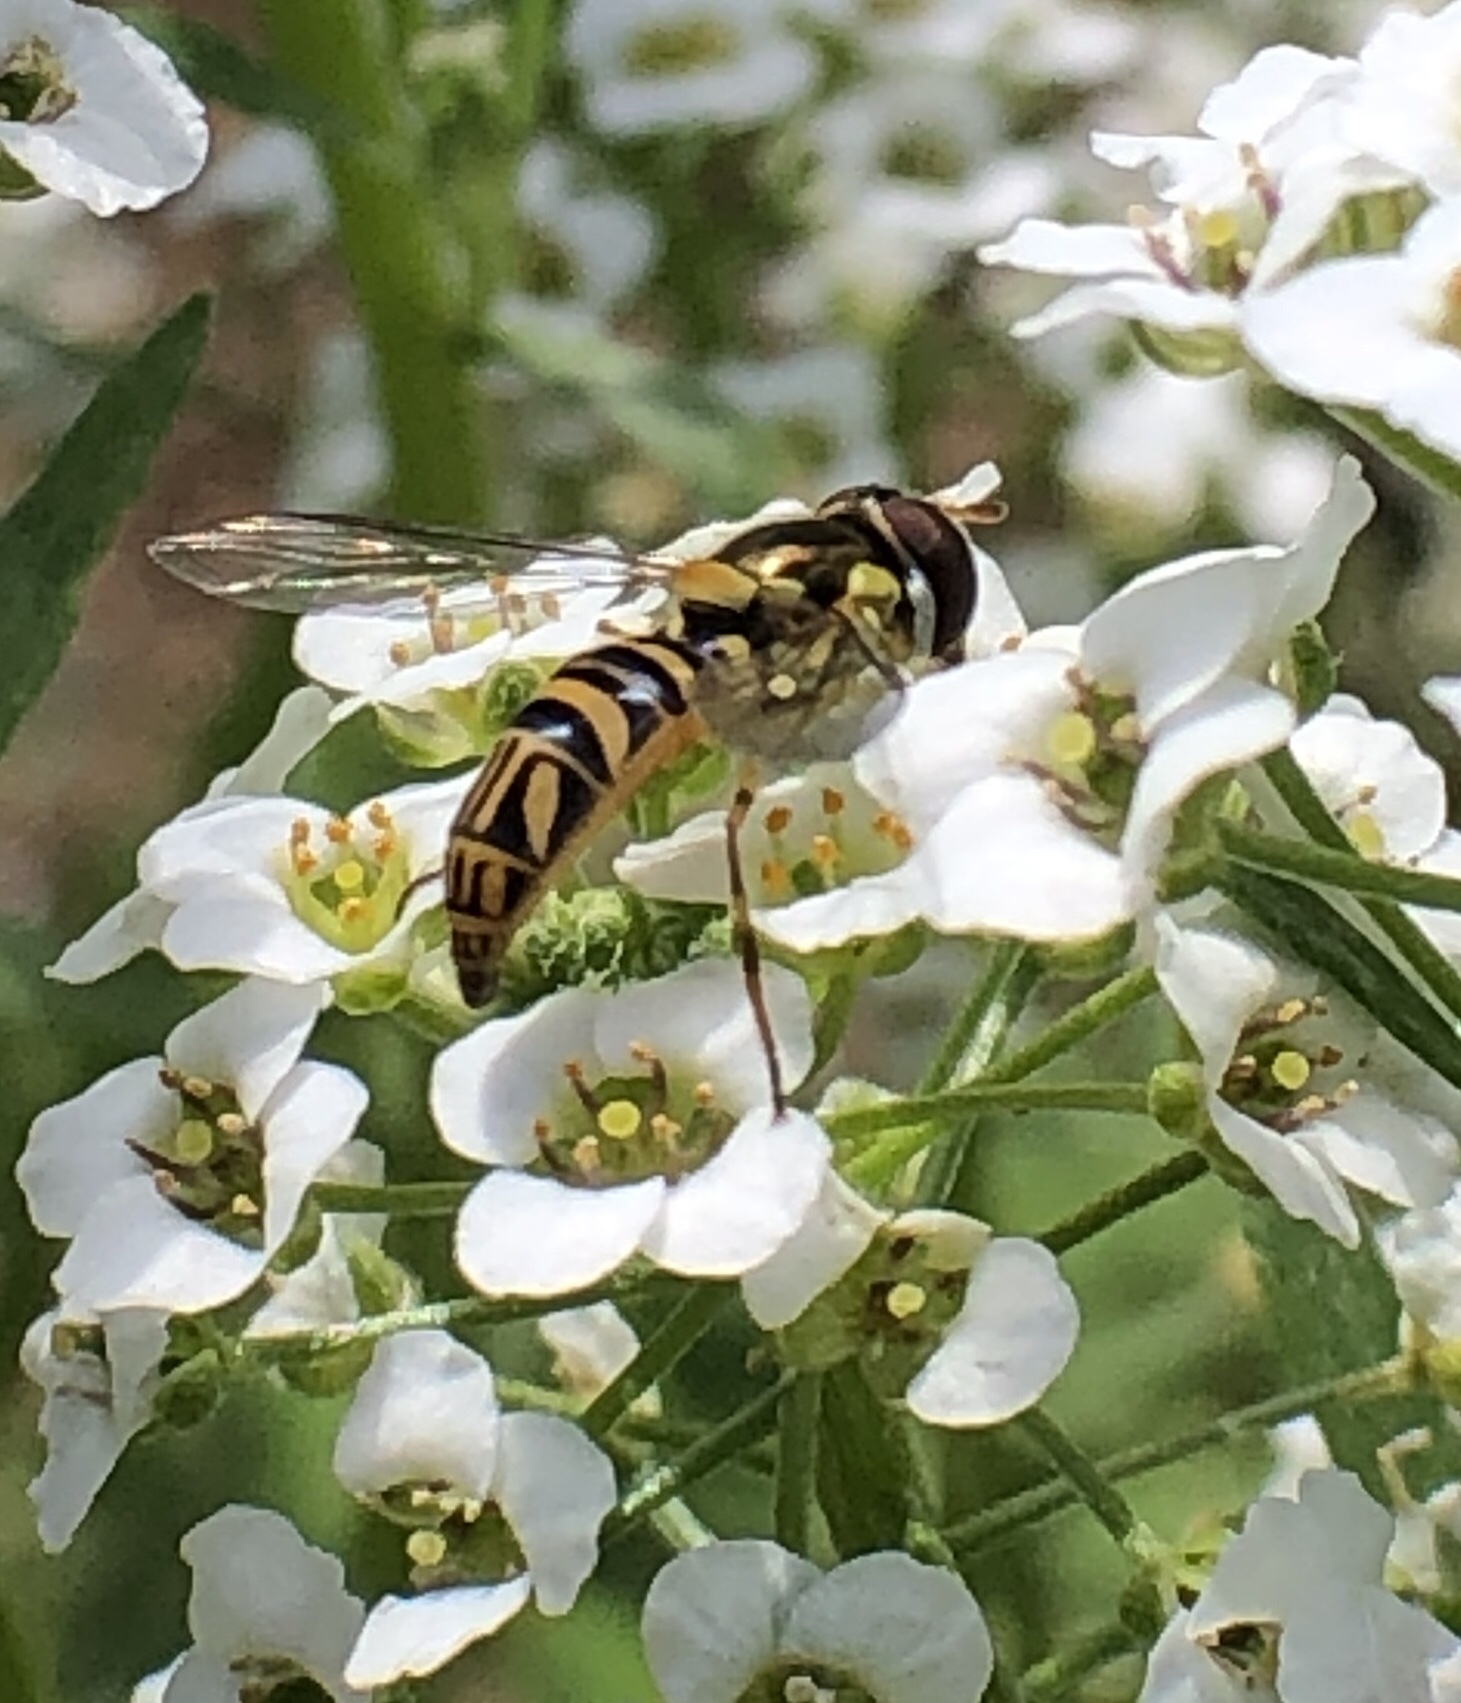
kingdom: Animalia
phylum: Arthropoda
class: Insecta
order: Diptera
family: Syrphidae
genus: Allograpta
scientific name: Allograpta obliqua
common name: Common oblique syrphid
